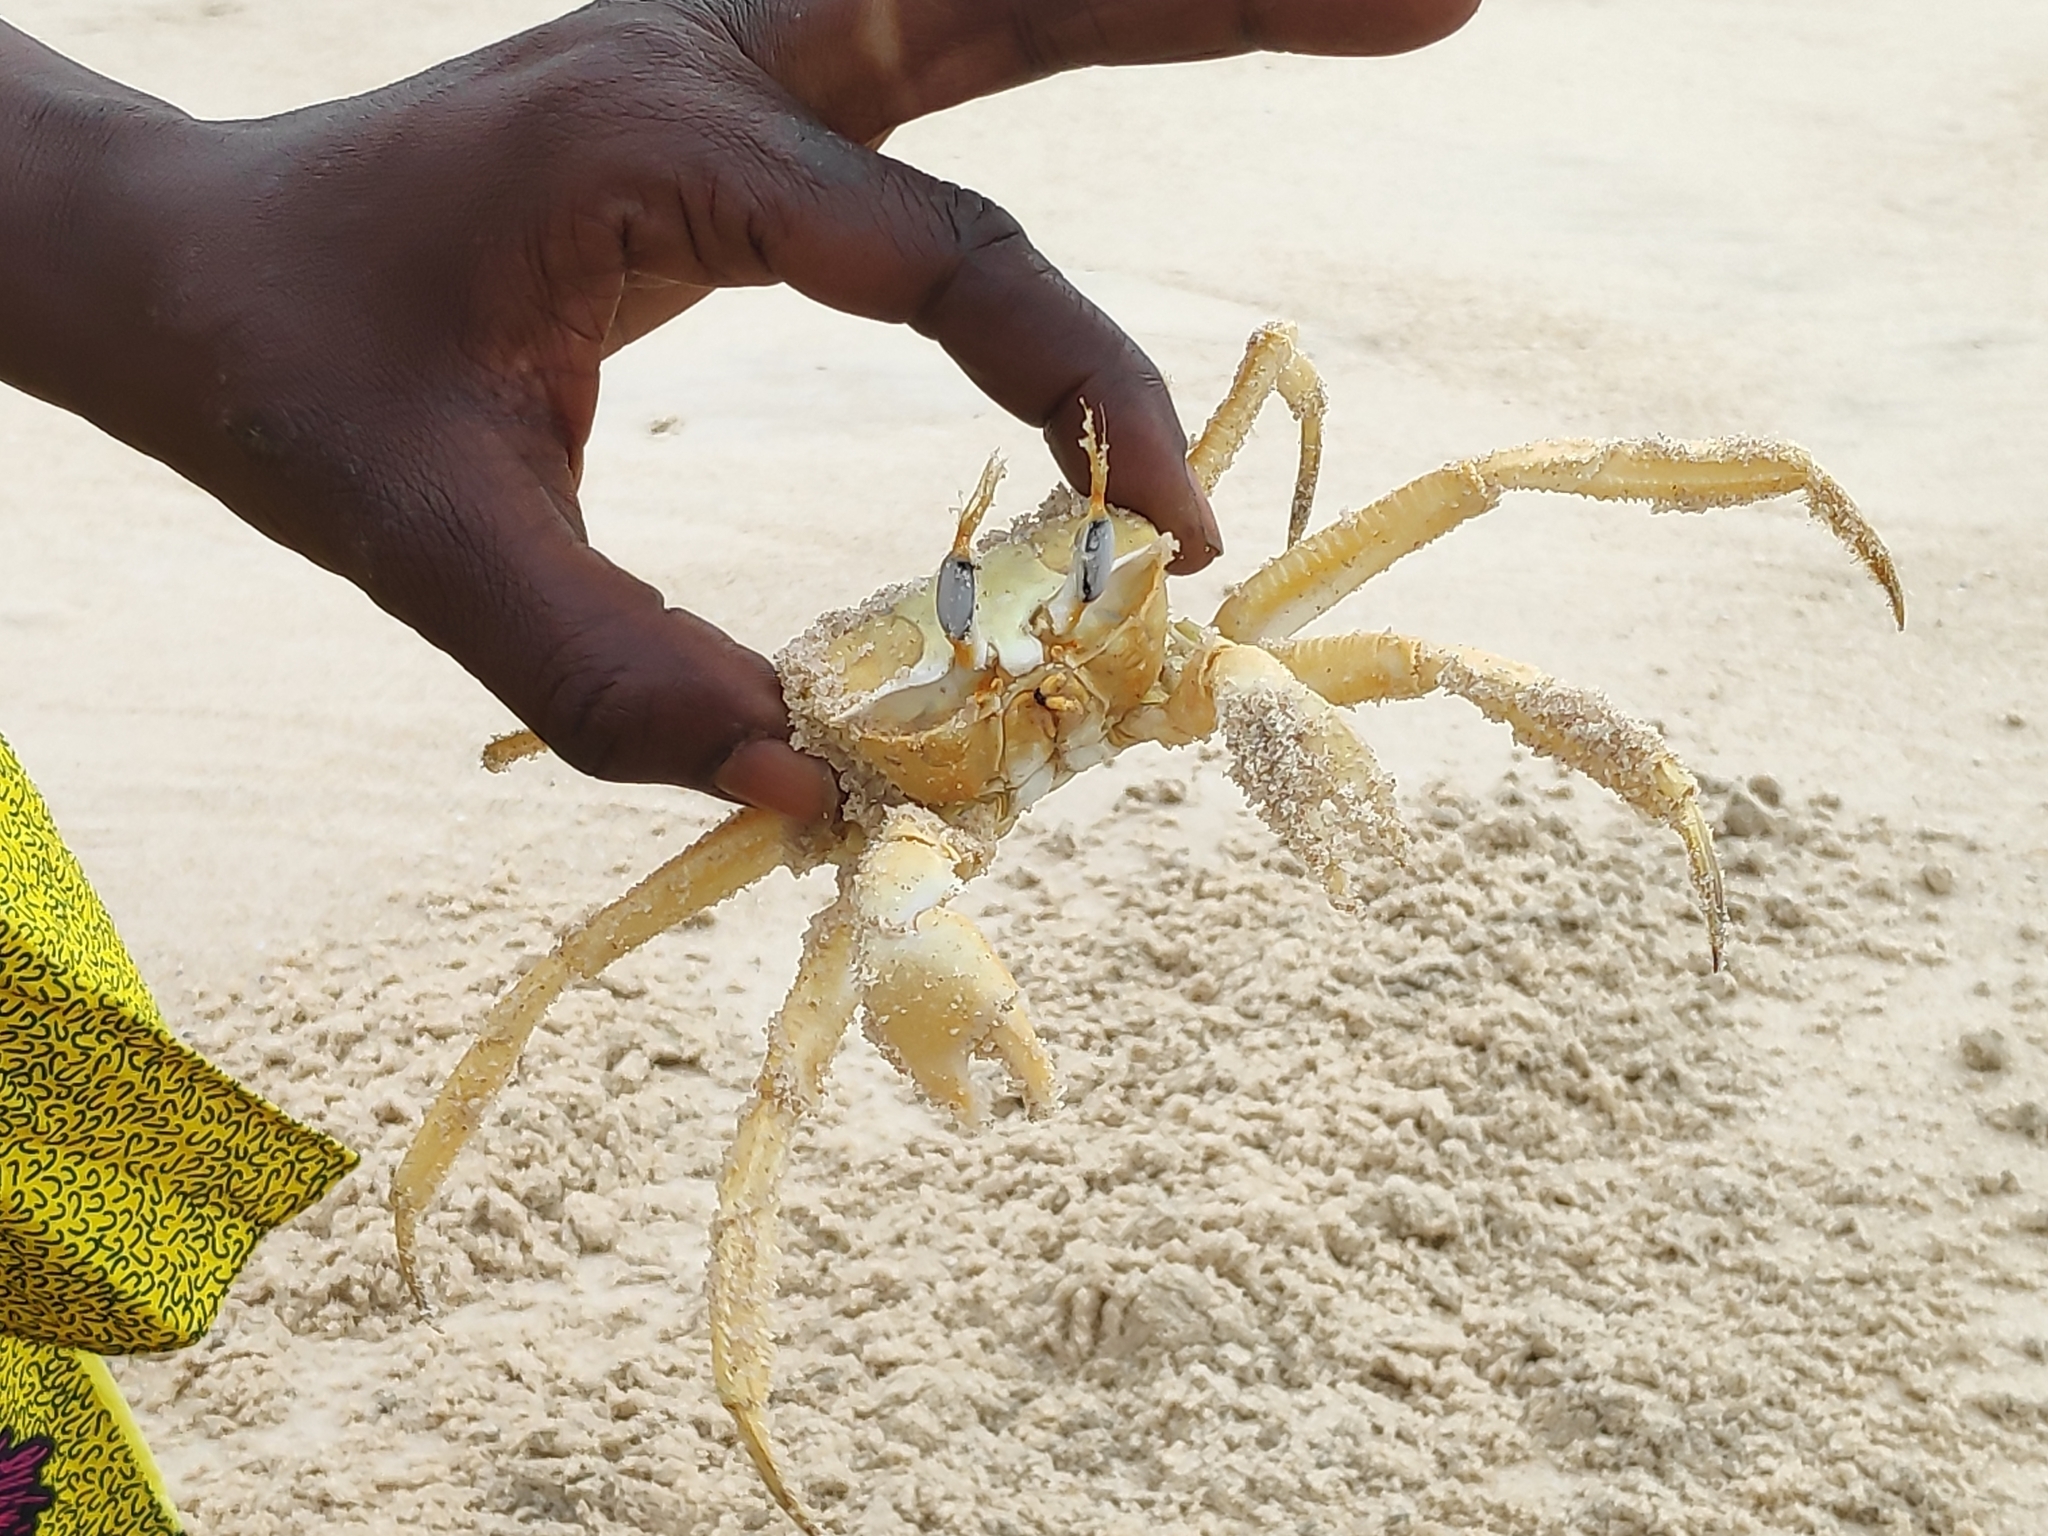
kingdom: Animalia
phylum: Arthropoda
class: Malacostraca
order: Decapoda
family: Ocypodidae
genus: Ocypode
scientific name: Ocypode cursor
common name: Tufted ghost crab
